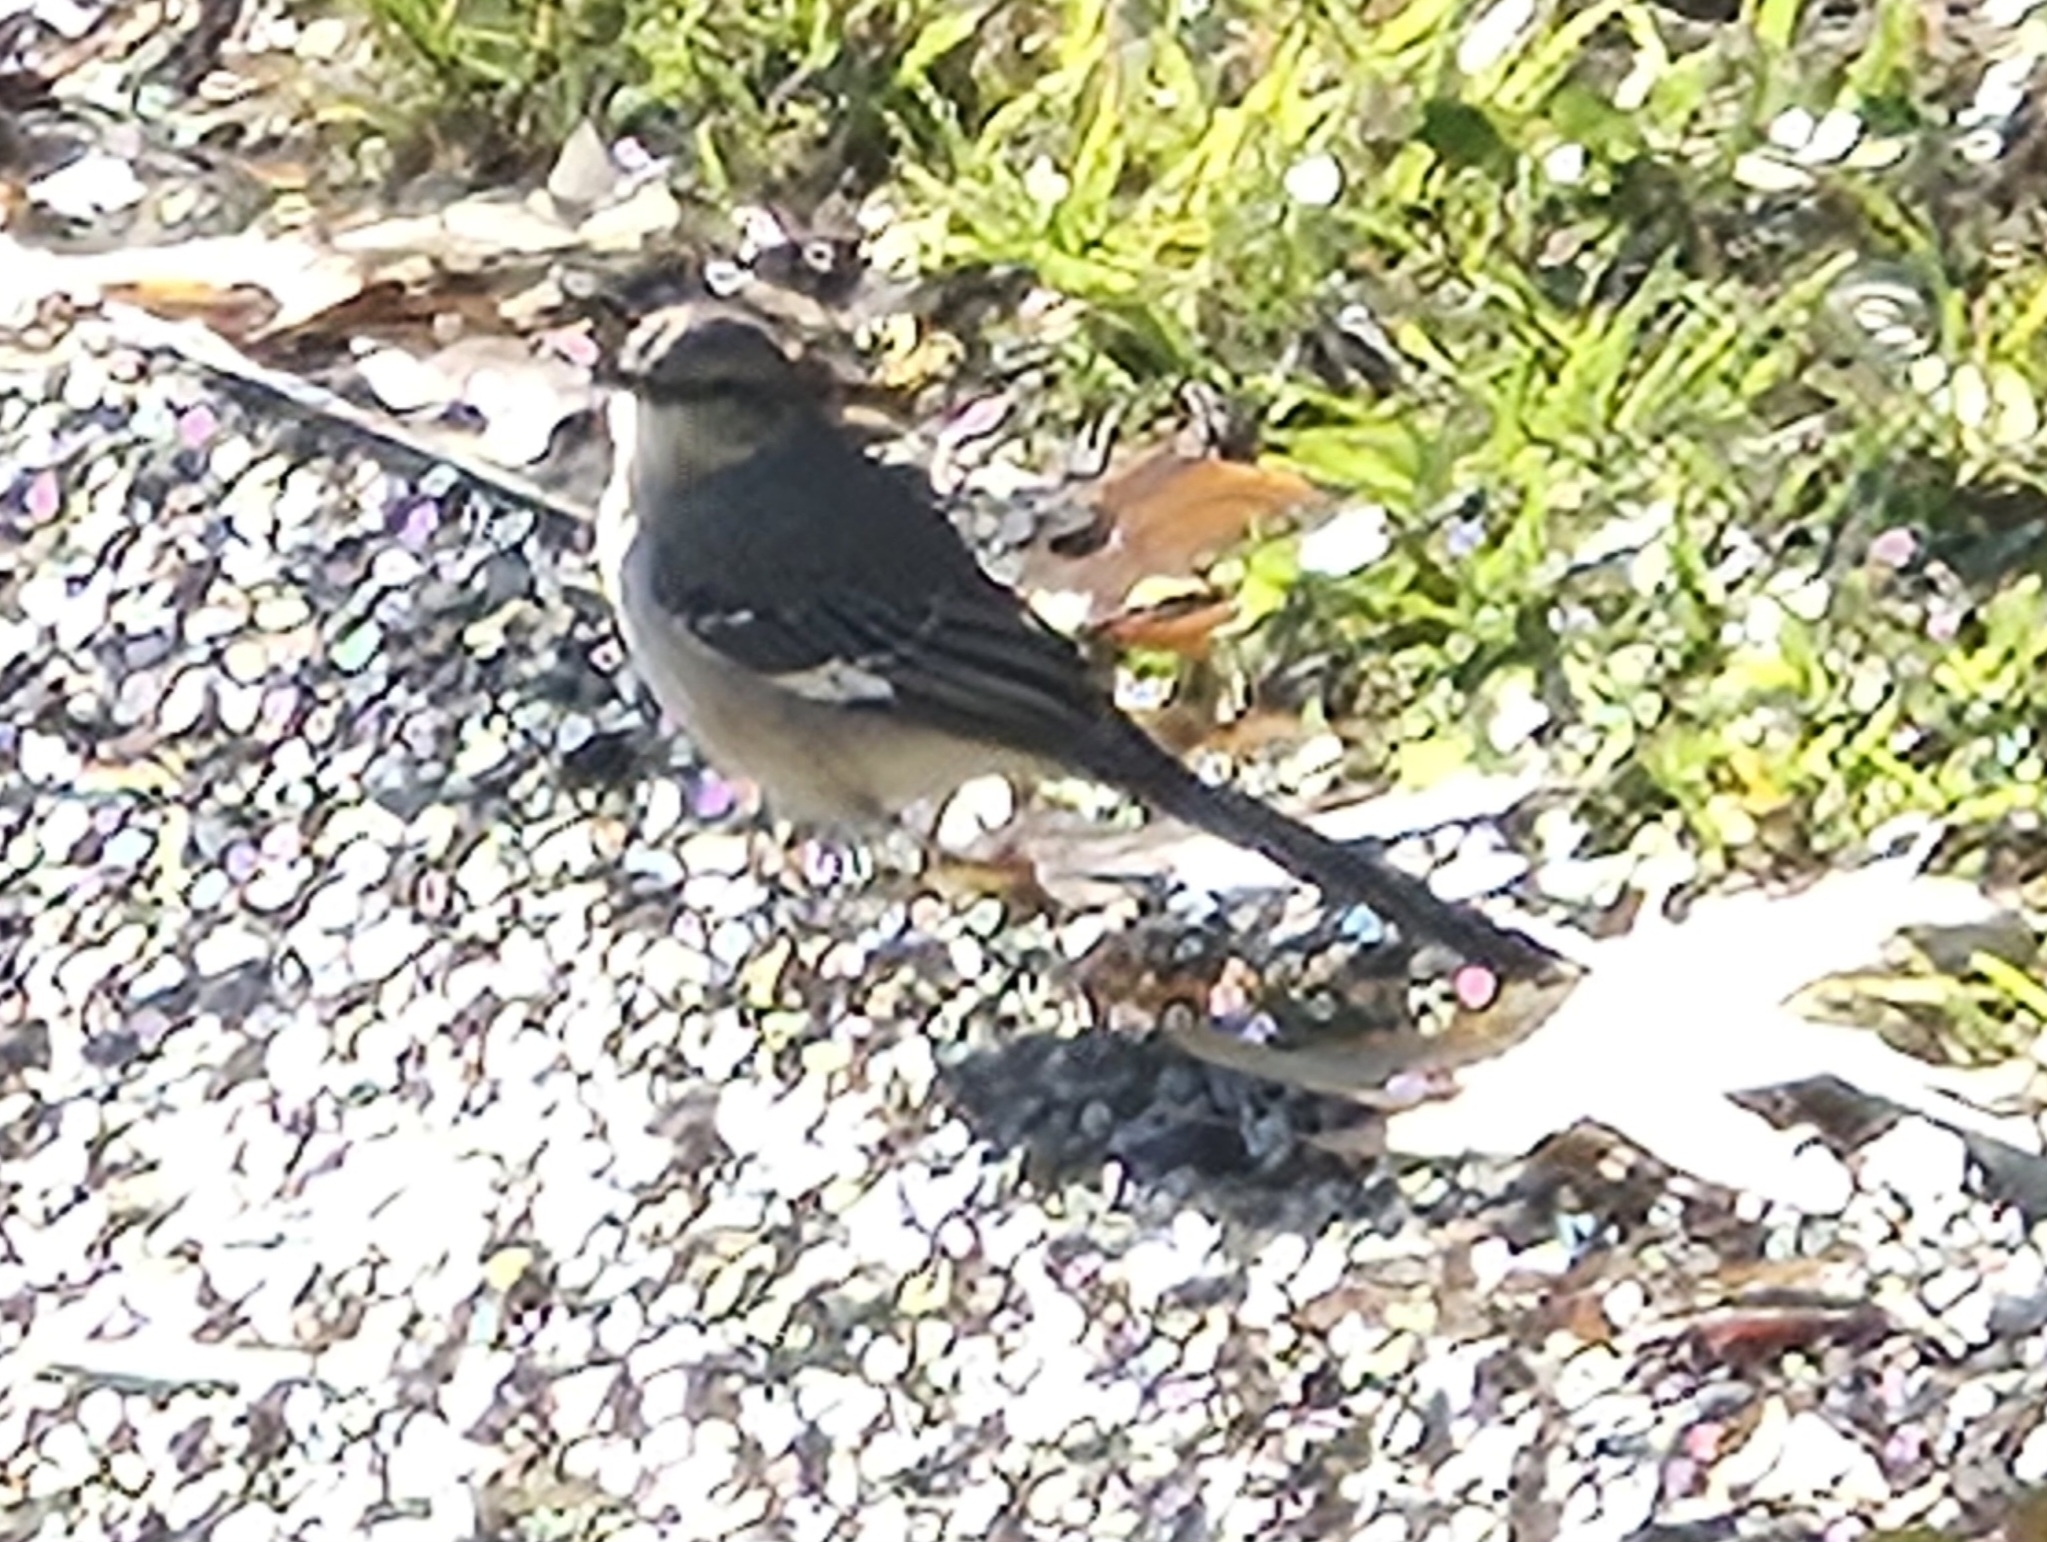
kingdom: Animalia
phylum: Chordata
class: Aves
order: Passeriformes
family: Mimidae
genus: Mimus
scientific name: Mimus polyglottos
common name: Northern mockingbird
